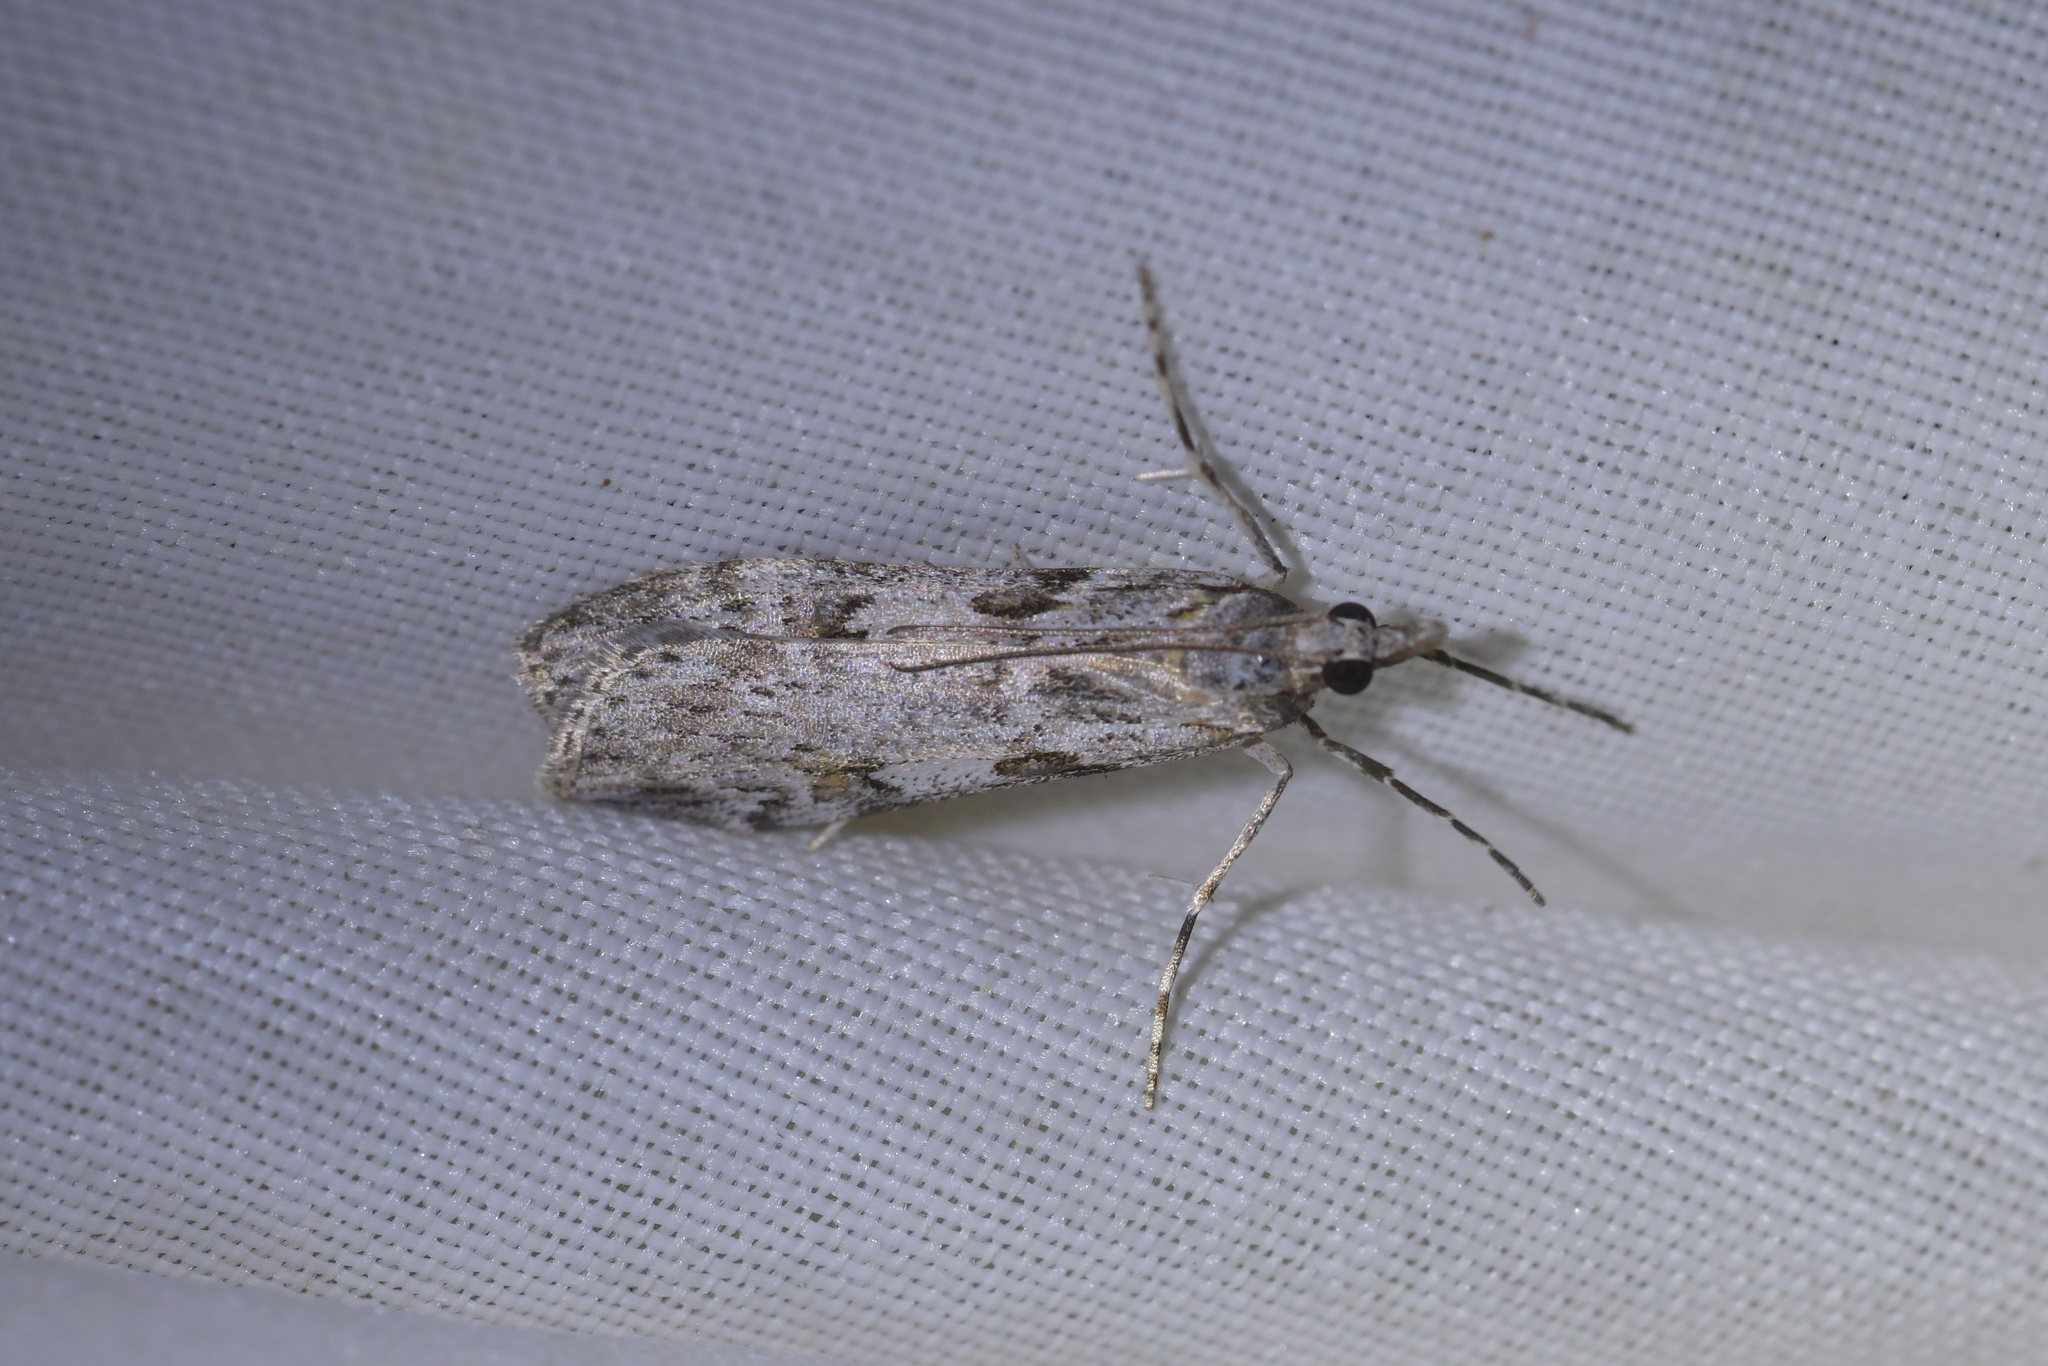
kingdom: Animalia
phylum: Arthropoda
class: Insecta
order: Lepidoptera
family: Crambidae
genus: Scoparia
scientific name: Scoparia halopis
